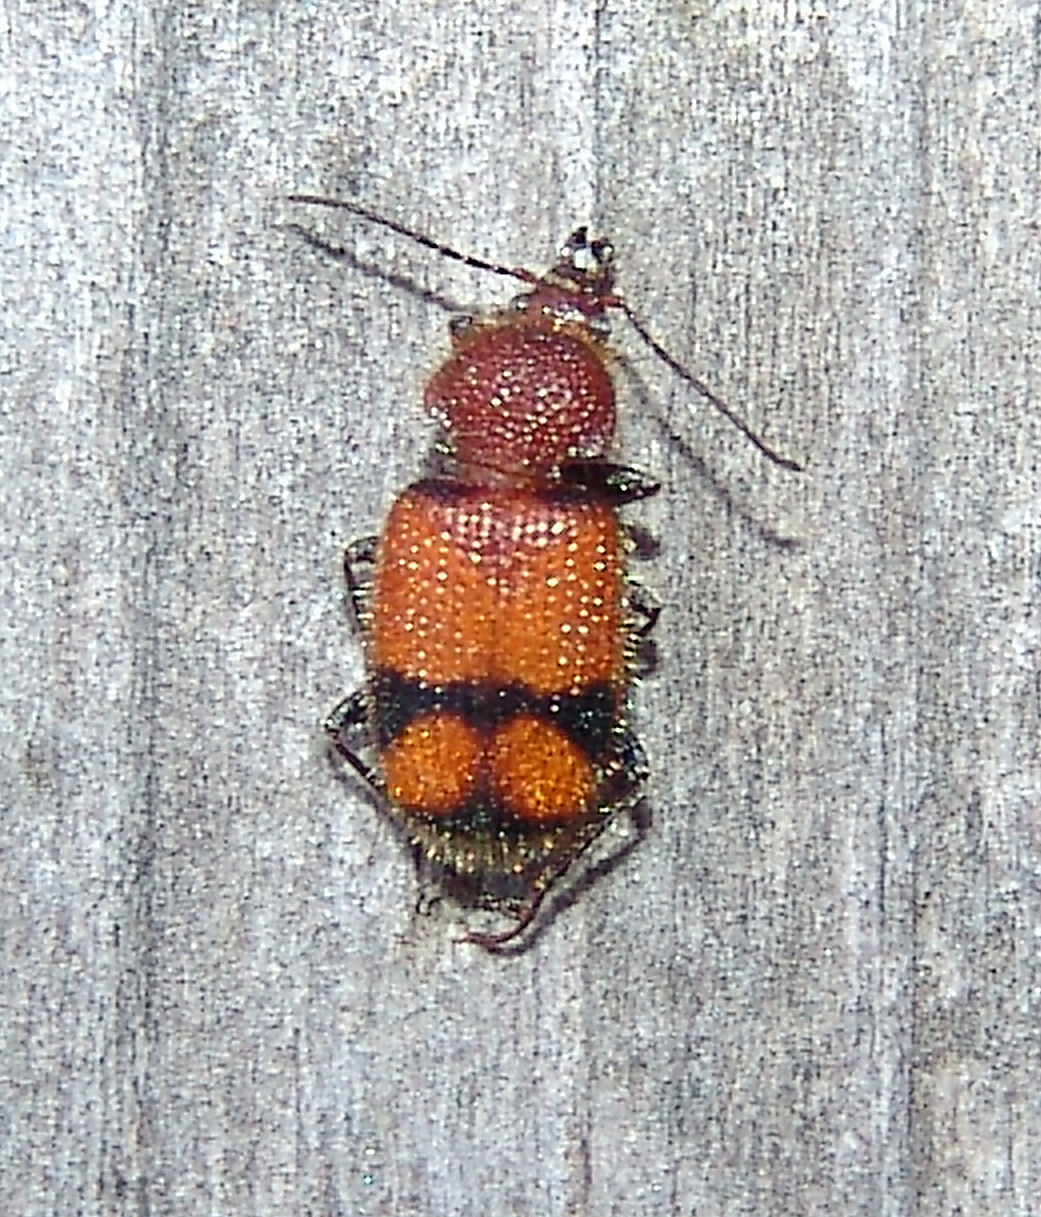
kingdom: Animalia
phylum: Arthropoda
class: Insecta
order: Coleoptera
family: Carabidae
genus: Panagaeus
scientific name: Panagaeus fasciatus
